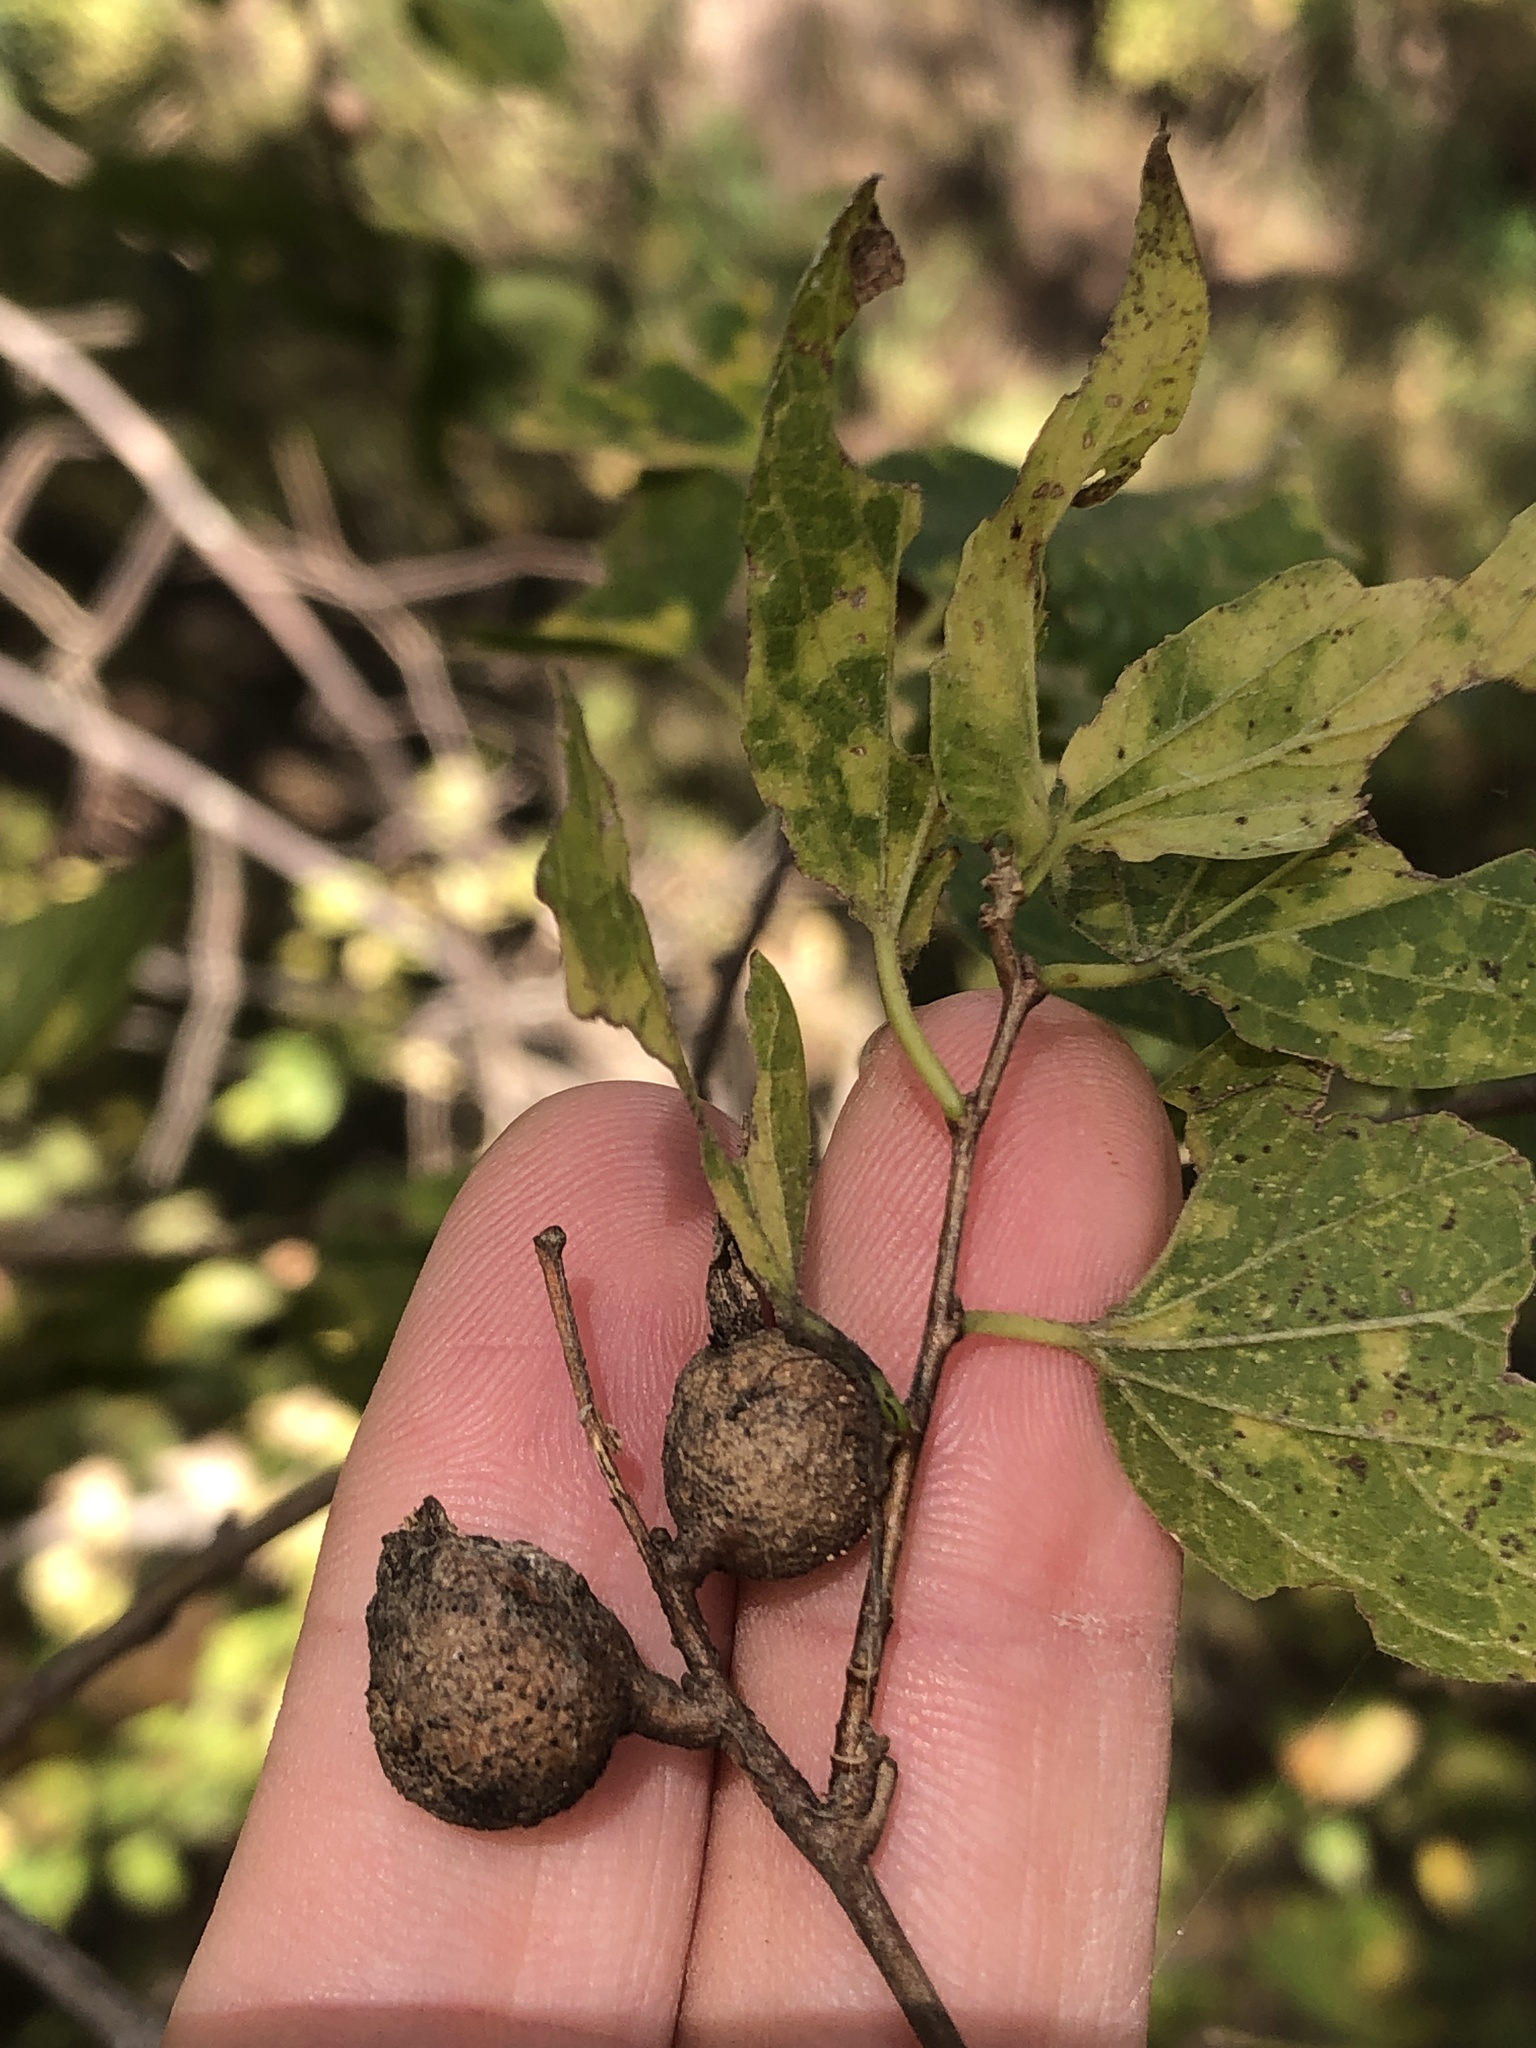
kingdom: Animalia
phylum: Arthropoda
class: Insecta
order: Hemiptera
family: Aphalaridae
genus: Pachypsylla
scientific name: Pachypsylla venusta
